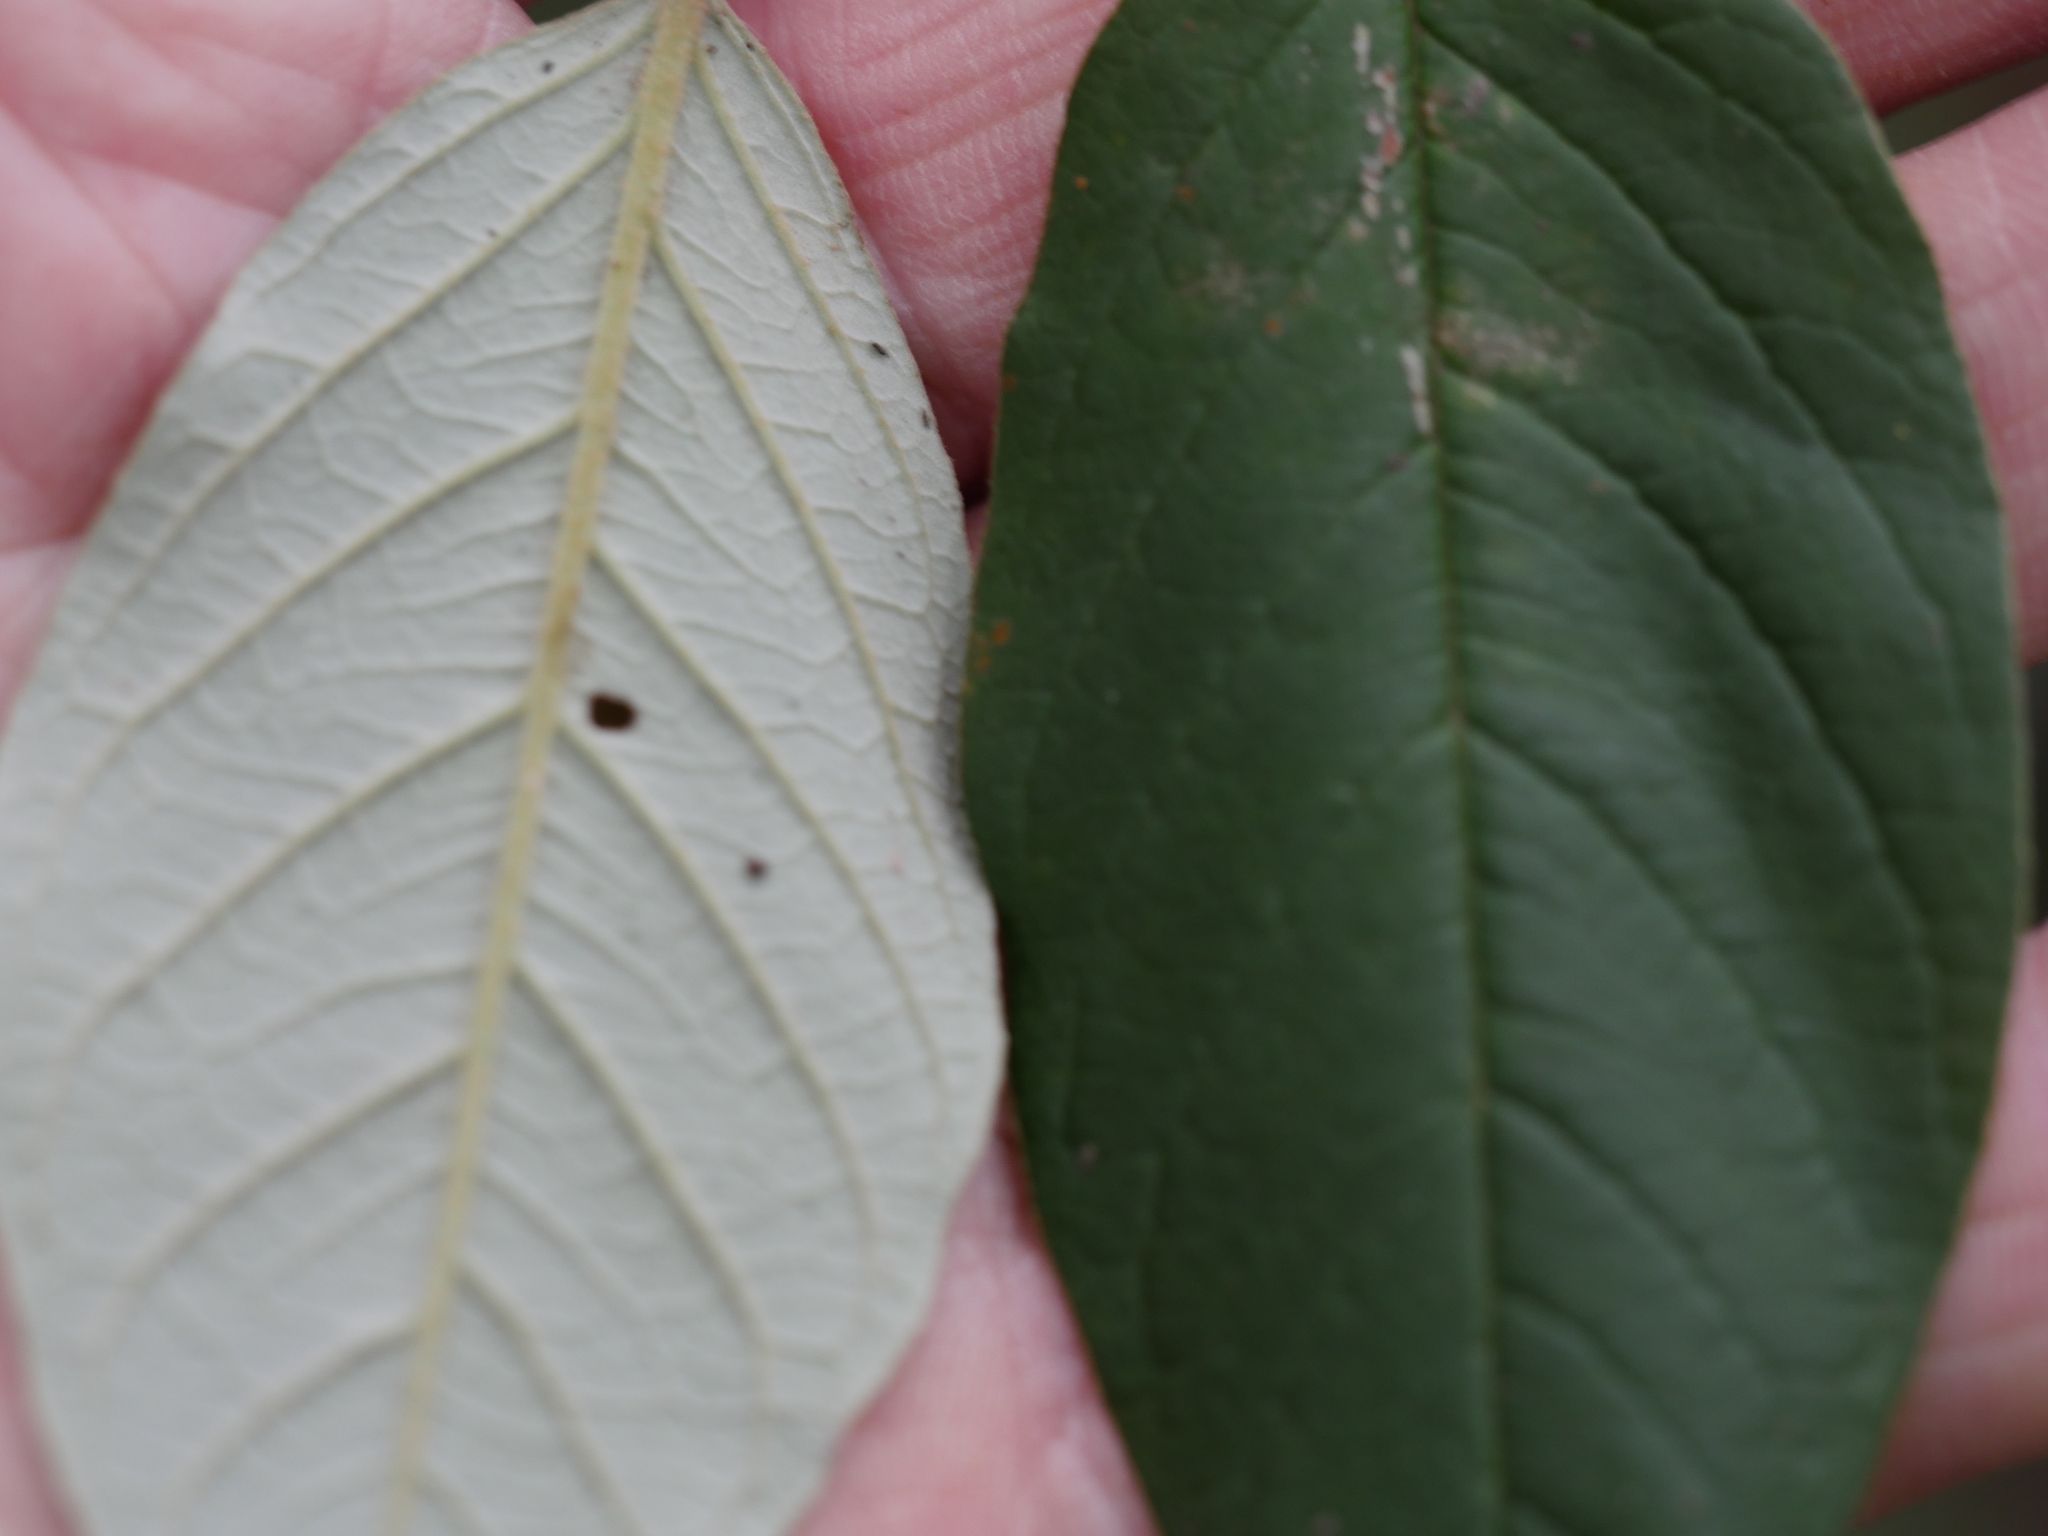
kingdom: Plantae
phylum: Tracheophyta
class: Magnoliopsida
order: Rosales
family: Rhamnaceae
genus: Pomaderris
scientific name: Pomaderris kumeraho
